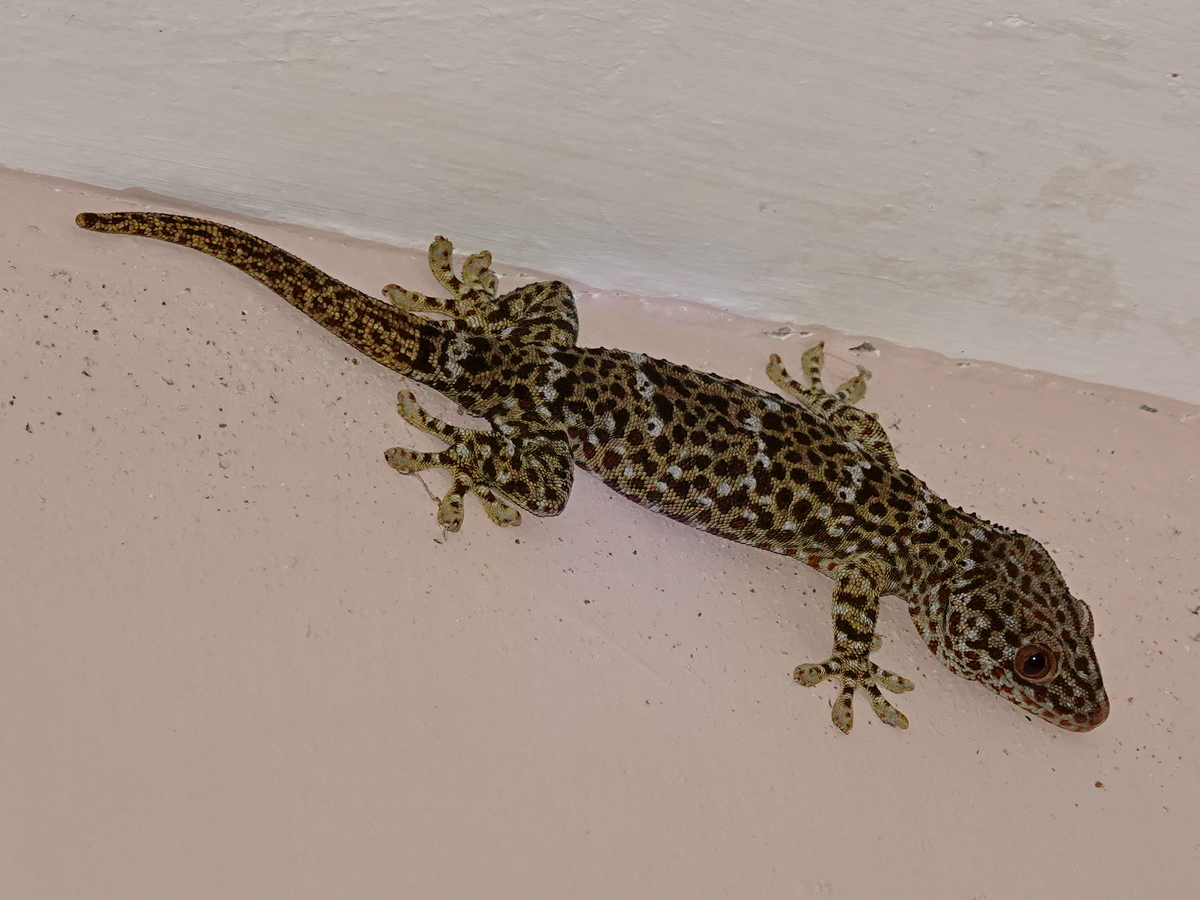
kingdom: Animalia
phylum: Chordata
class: Squamata
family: Gekkonidae
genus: Gekko
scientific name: Gekko gecko
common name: Tokay gecko
